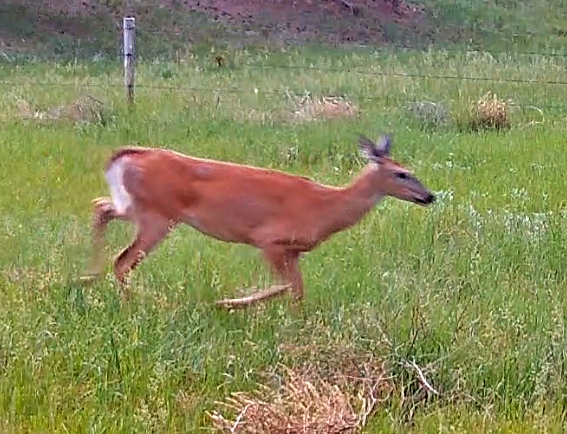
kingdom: Animalia
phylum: Chordata
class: Mammalia
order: Artiodactyla
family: Cervidae
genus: Odocoileus
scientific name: Odocoileus virginianus
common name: White-tailed deer
